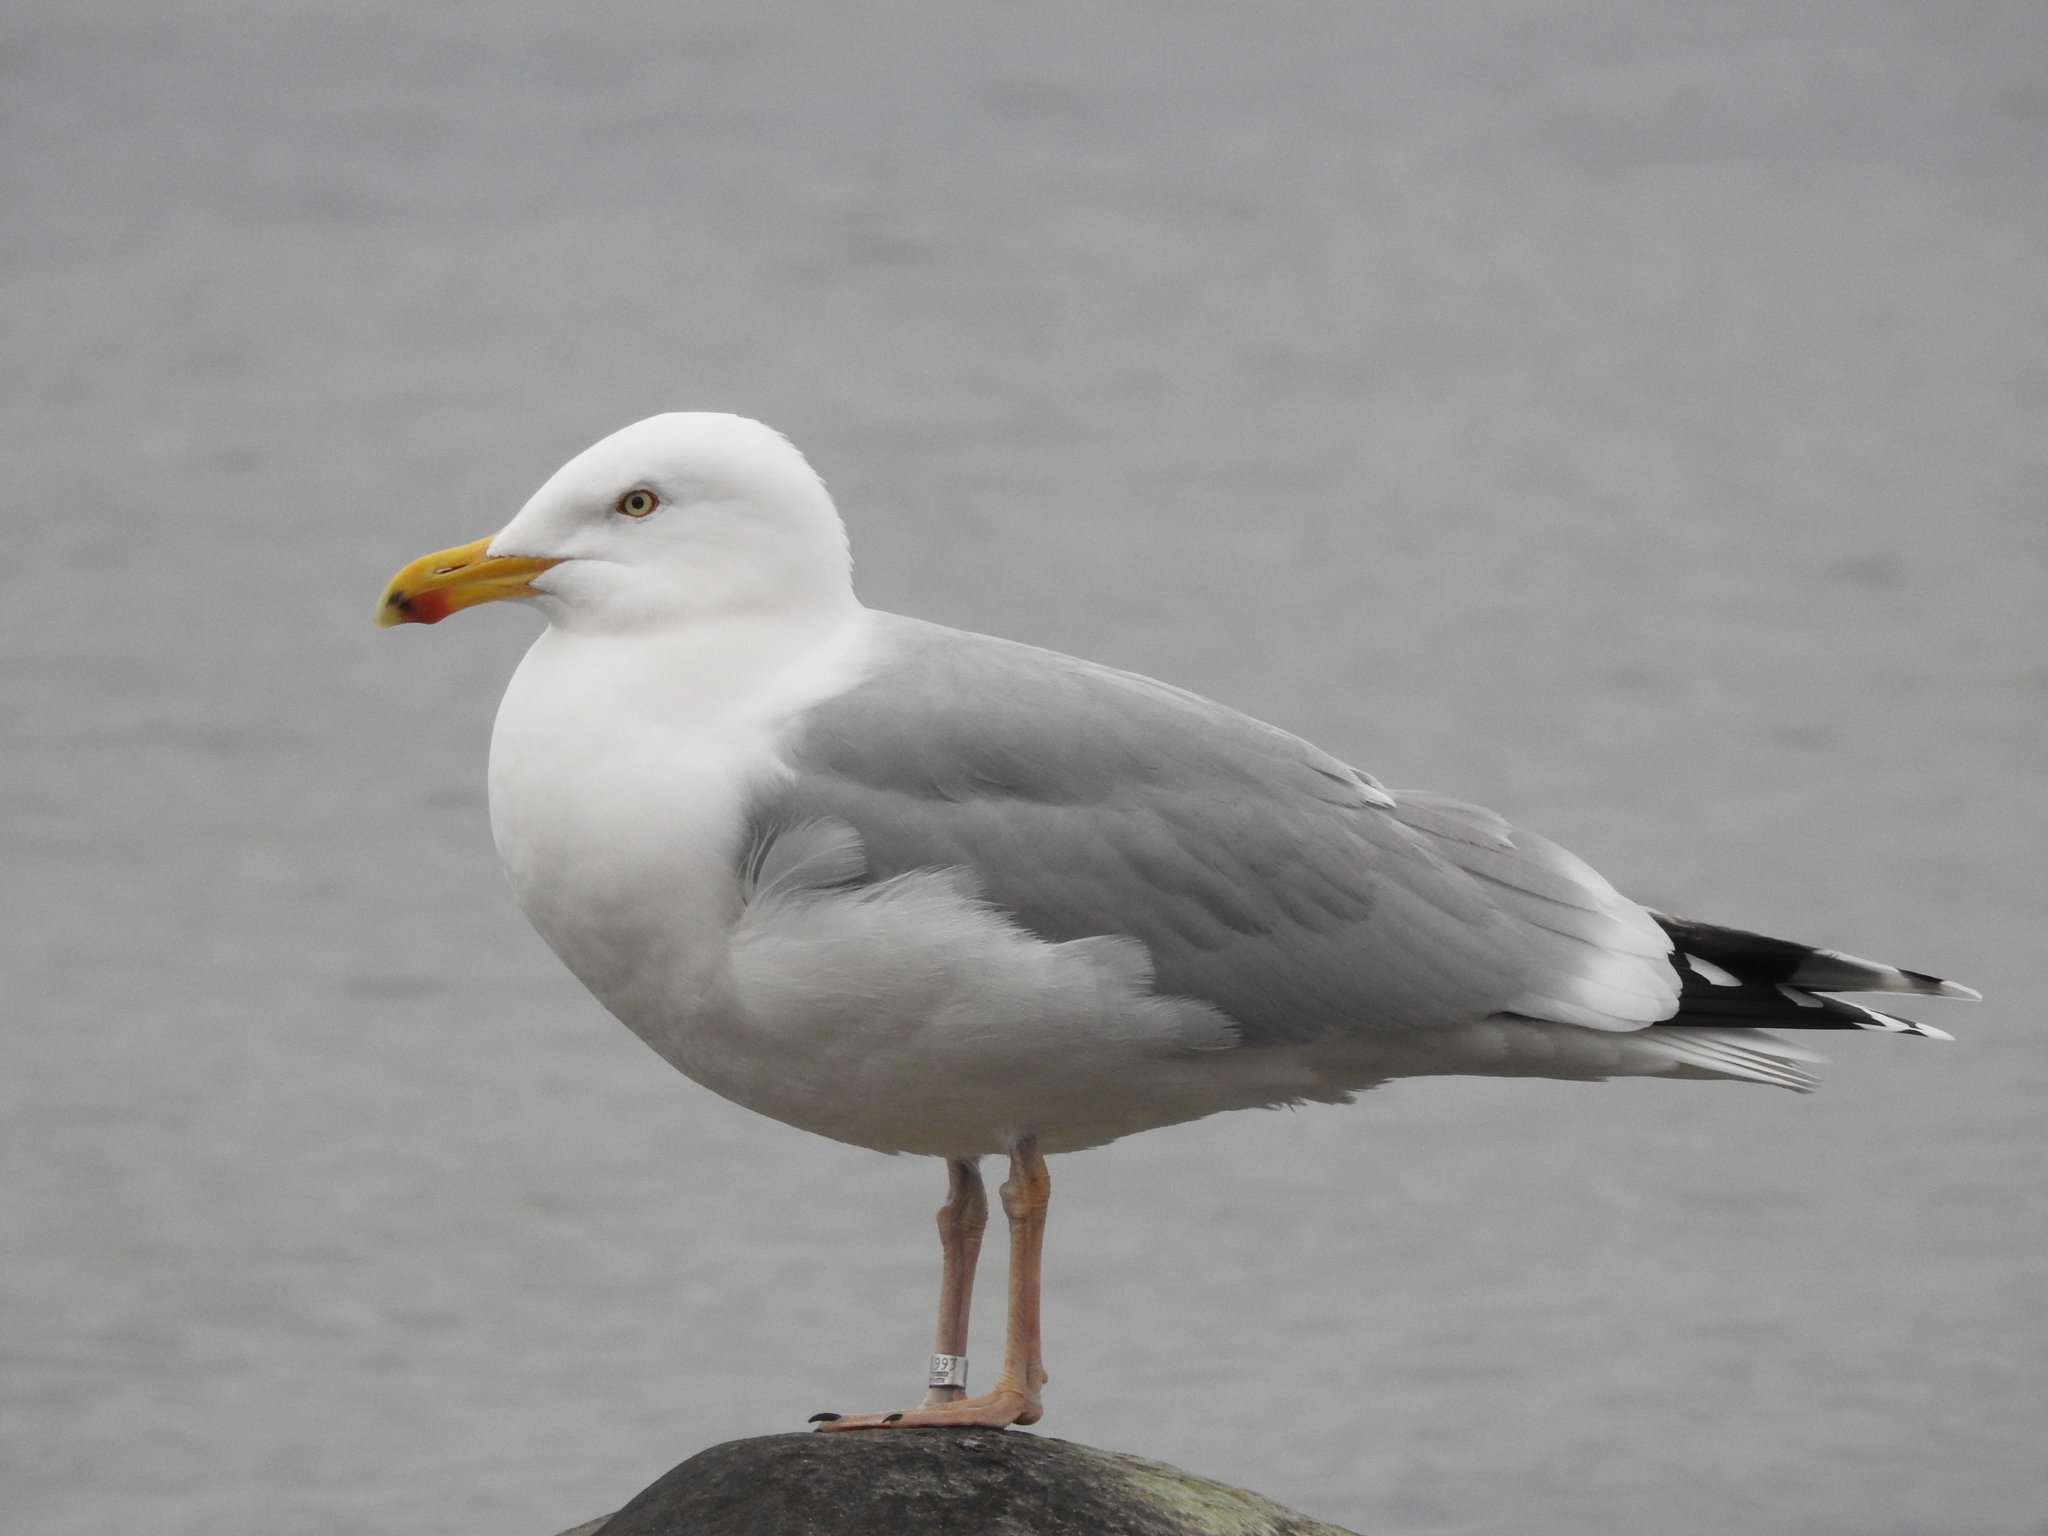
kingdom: Animalia
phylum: Chordata
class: Aves
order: Charadriiformes
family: Laridae
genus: Larus
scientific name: Larus argentatus
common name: Herring gull
